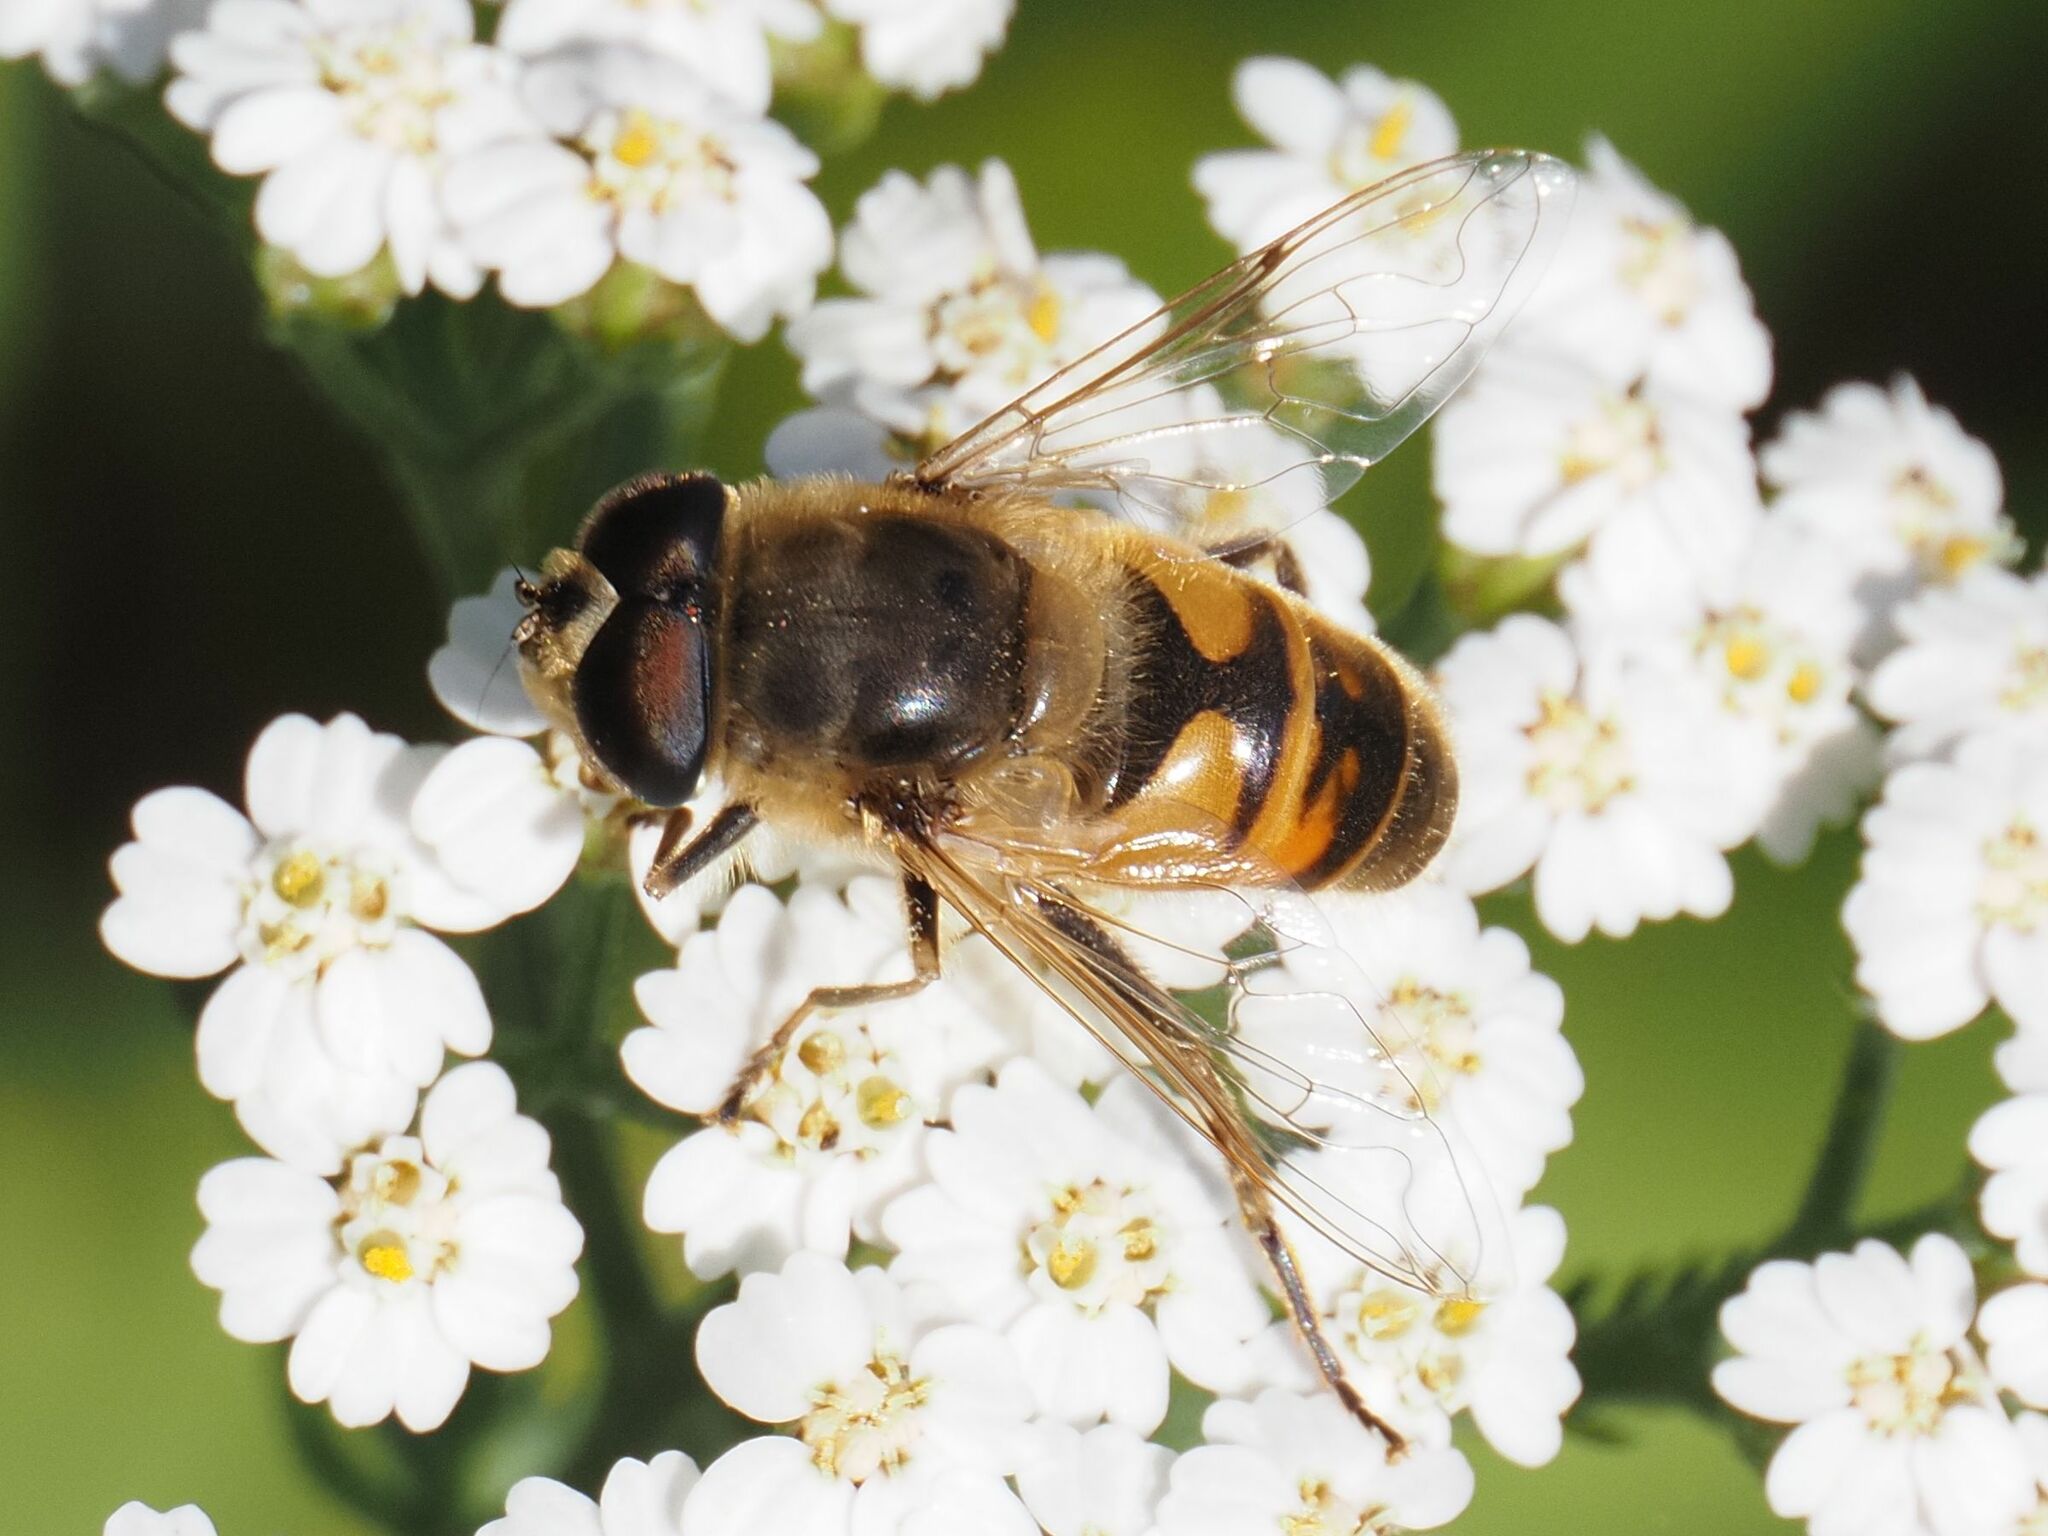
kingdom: Animalia
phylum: Arthropoda
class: Insecta
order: Diptera
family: Syrphidae
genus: Eristalis
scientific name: Eristalis tenax
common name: Drone fly
